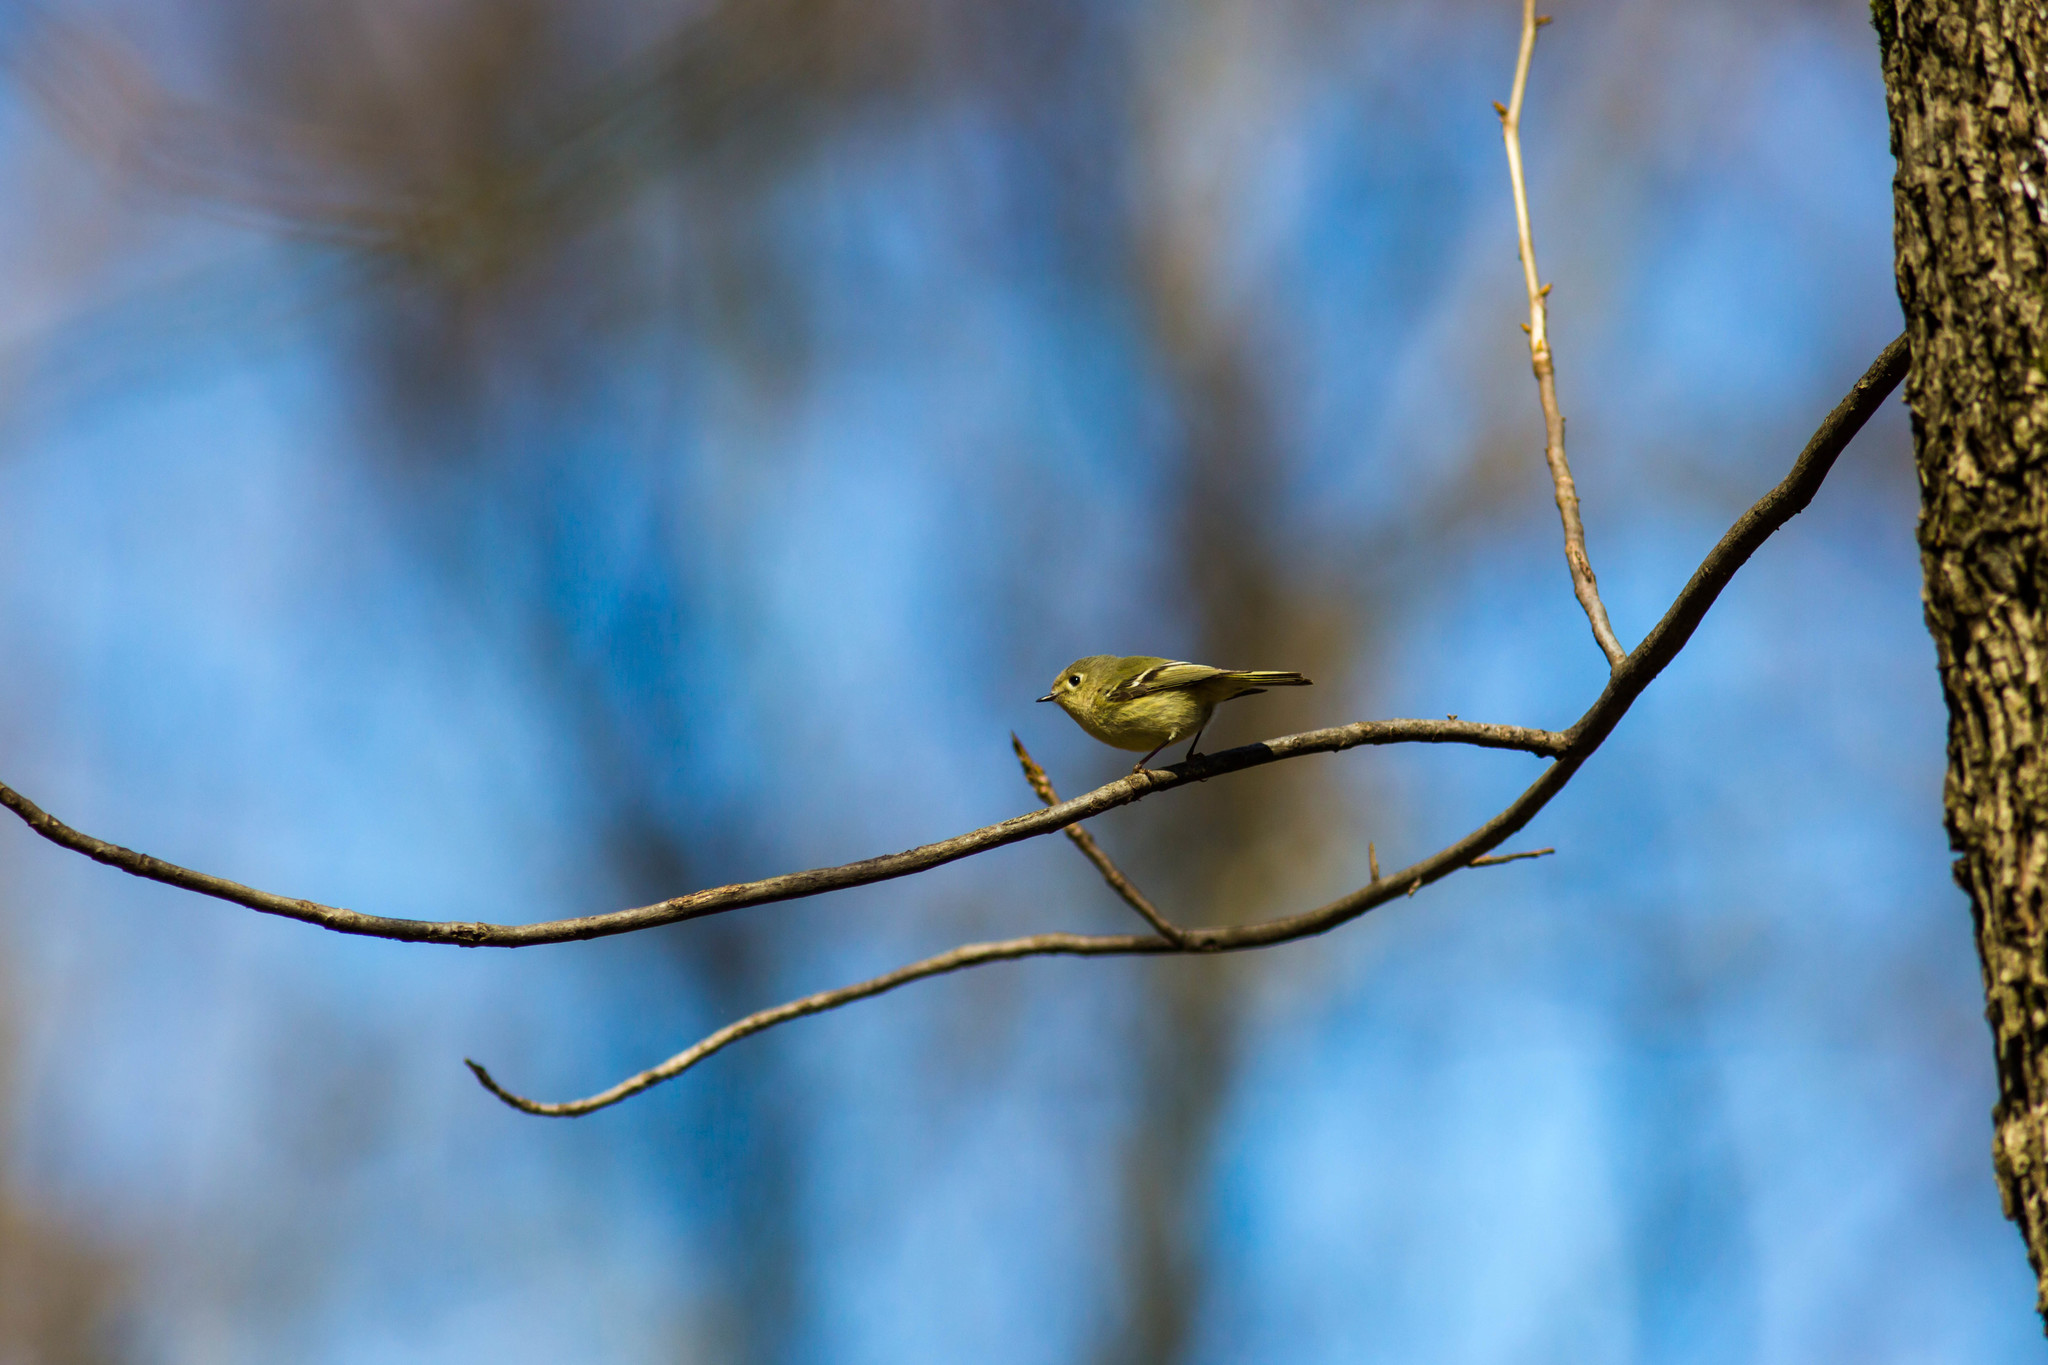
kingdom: Animalia
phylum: Chordata
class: Aves
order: Passeriformes
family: Regulidae
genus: Regulus
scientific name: Regulus calendula
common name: Ruby-crowned kinglet
